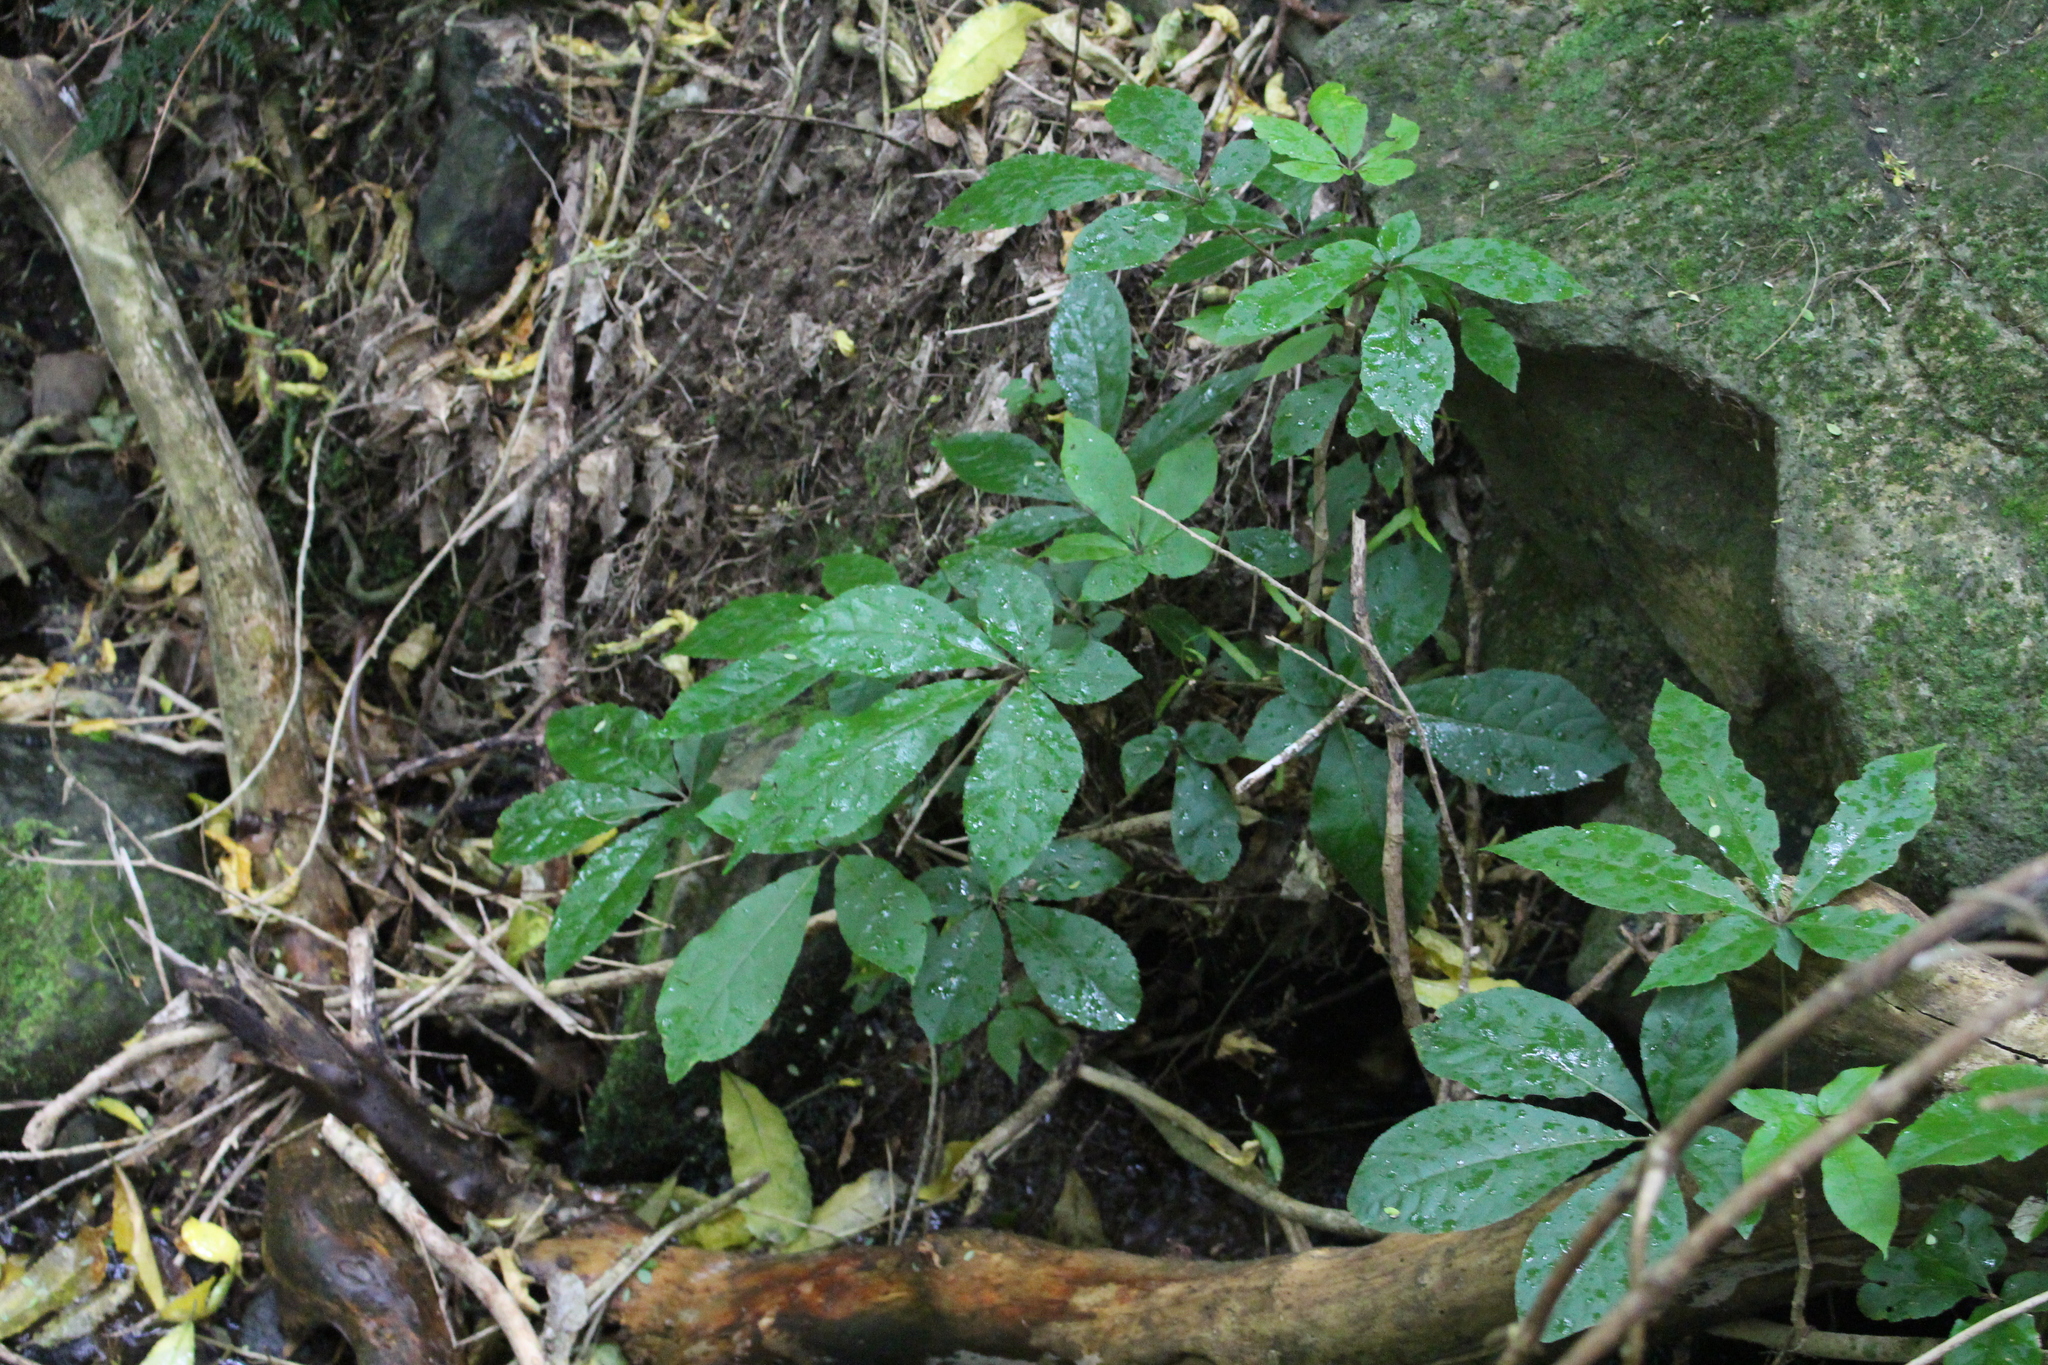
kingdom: Plantae
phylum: Tracheophyta
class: Magnoliopsida
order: Apiales
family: Araliaceae
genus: Schefflera
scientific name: Schefflera digitata
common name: Pate
